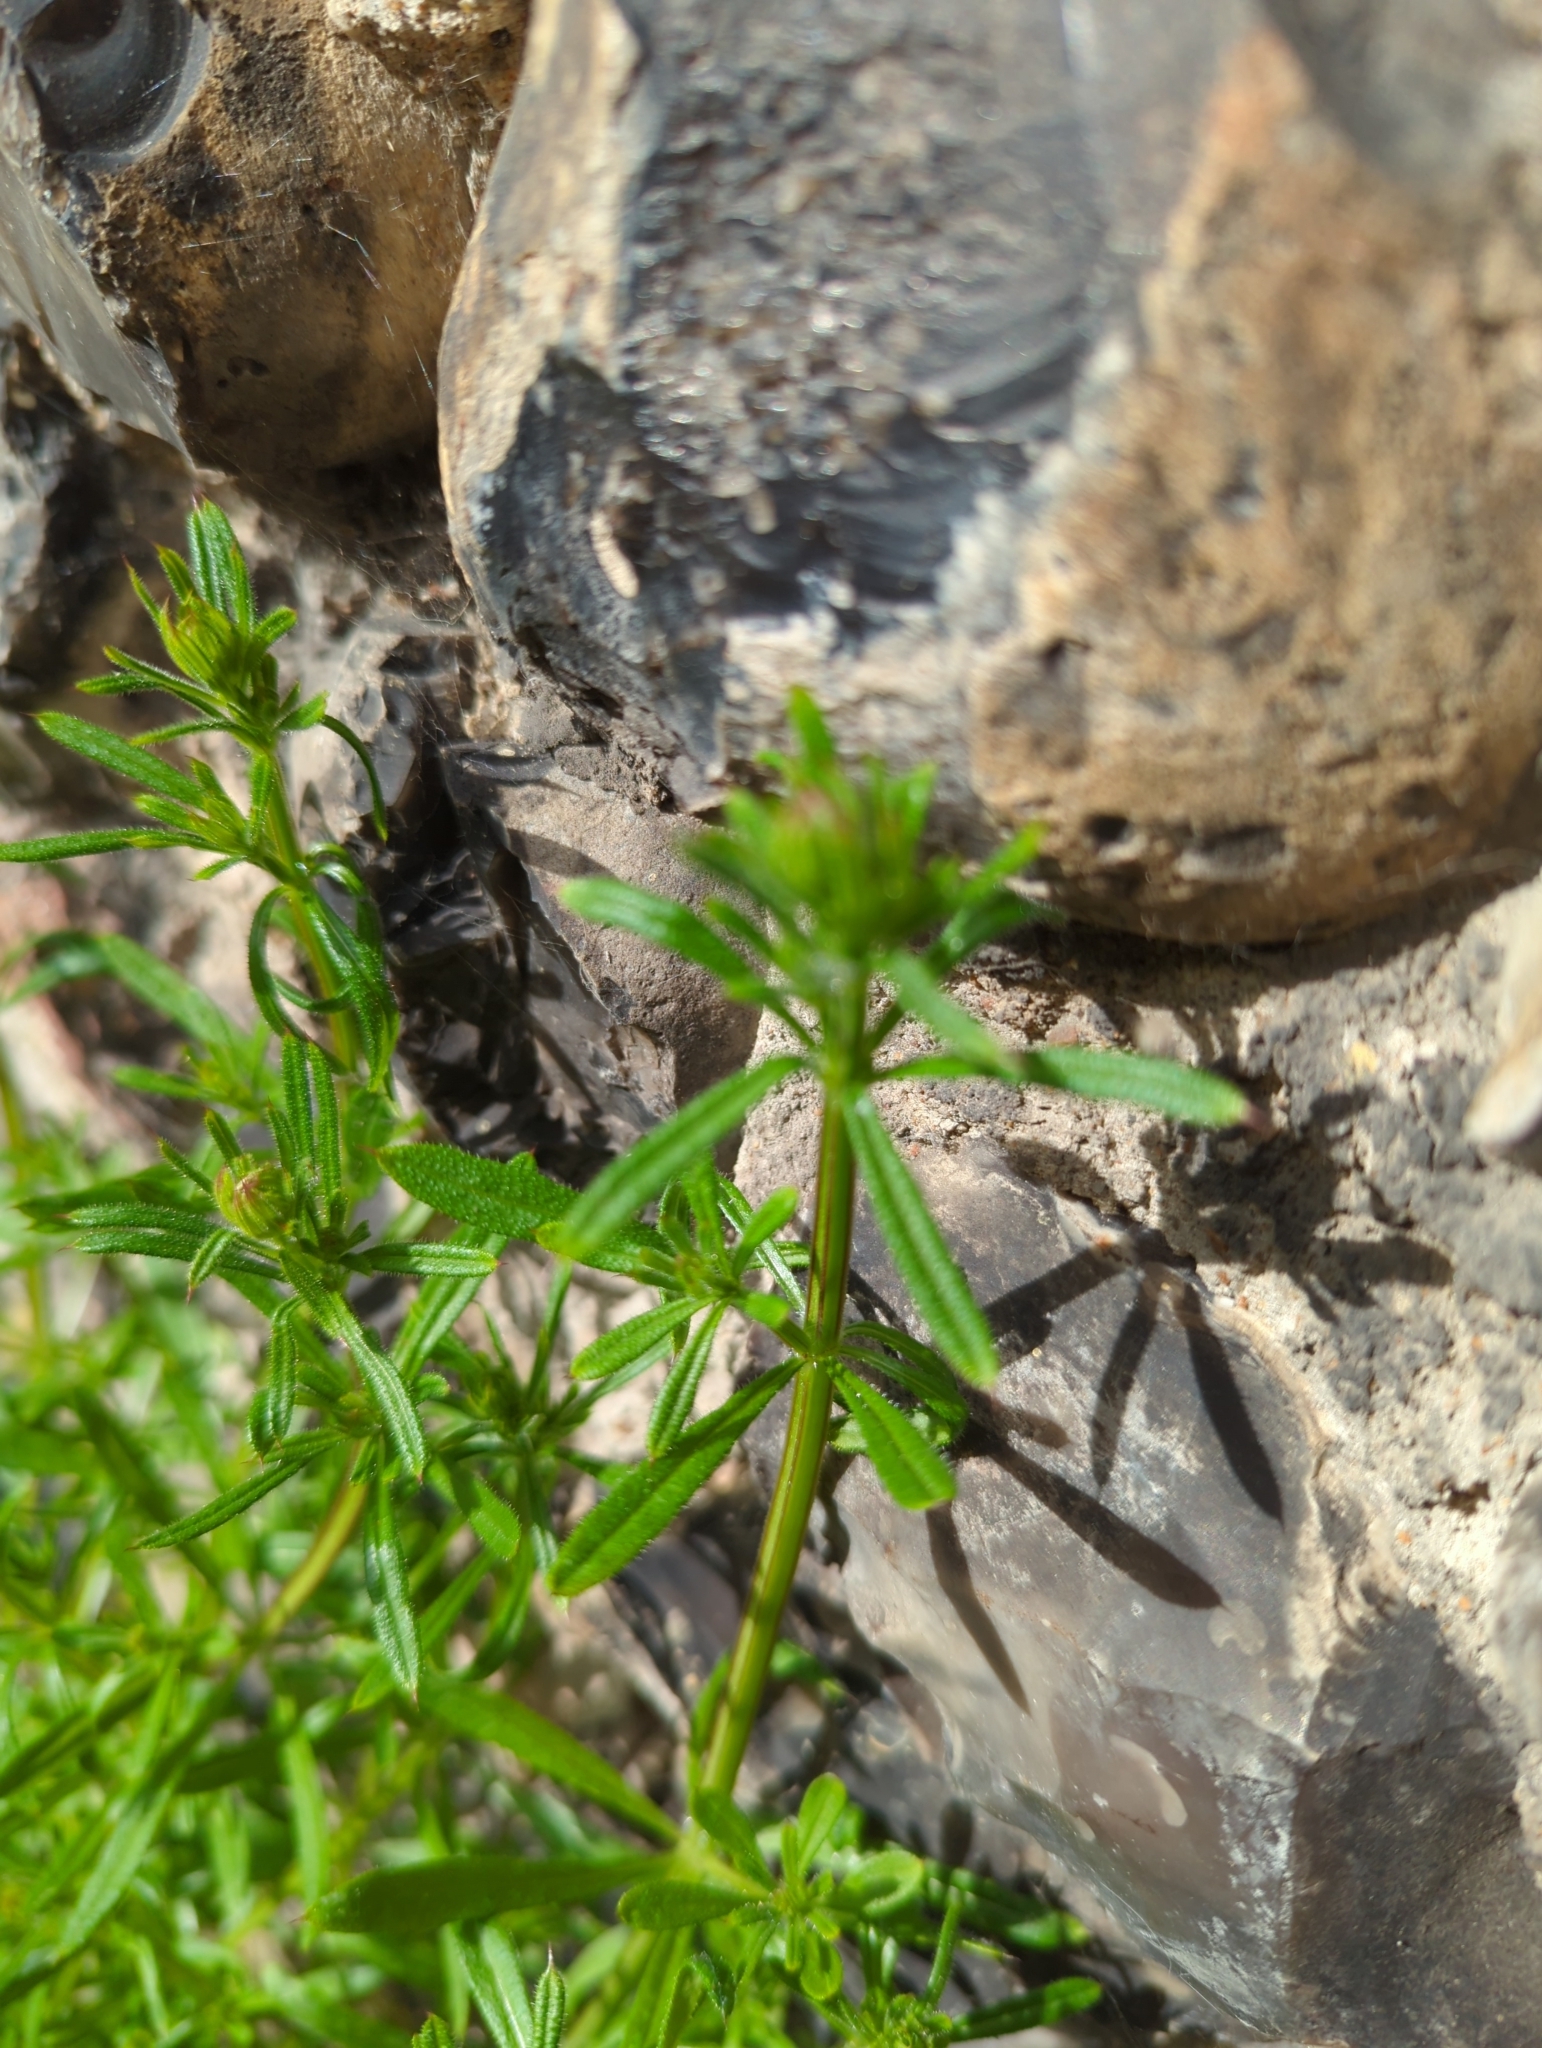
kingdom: Plantae
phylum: Tracheophyta
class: Magnoliopsida
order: Gentianales
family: Rubiaceae
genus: Galium
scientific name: Galium aparine
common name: Cleavers
